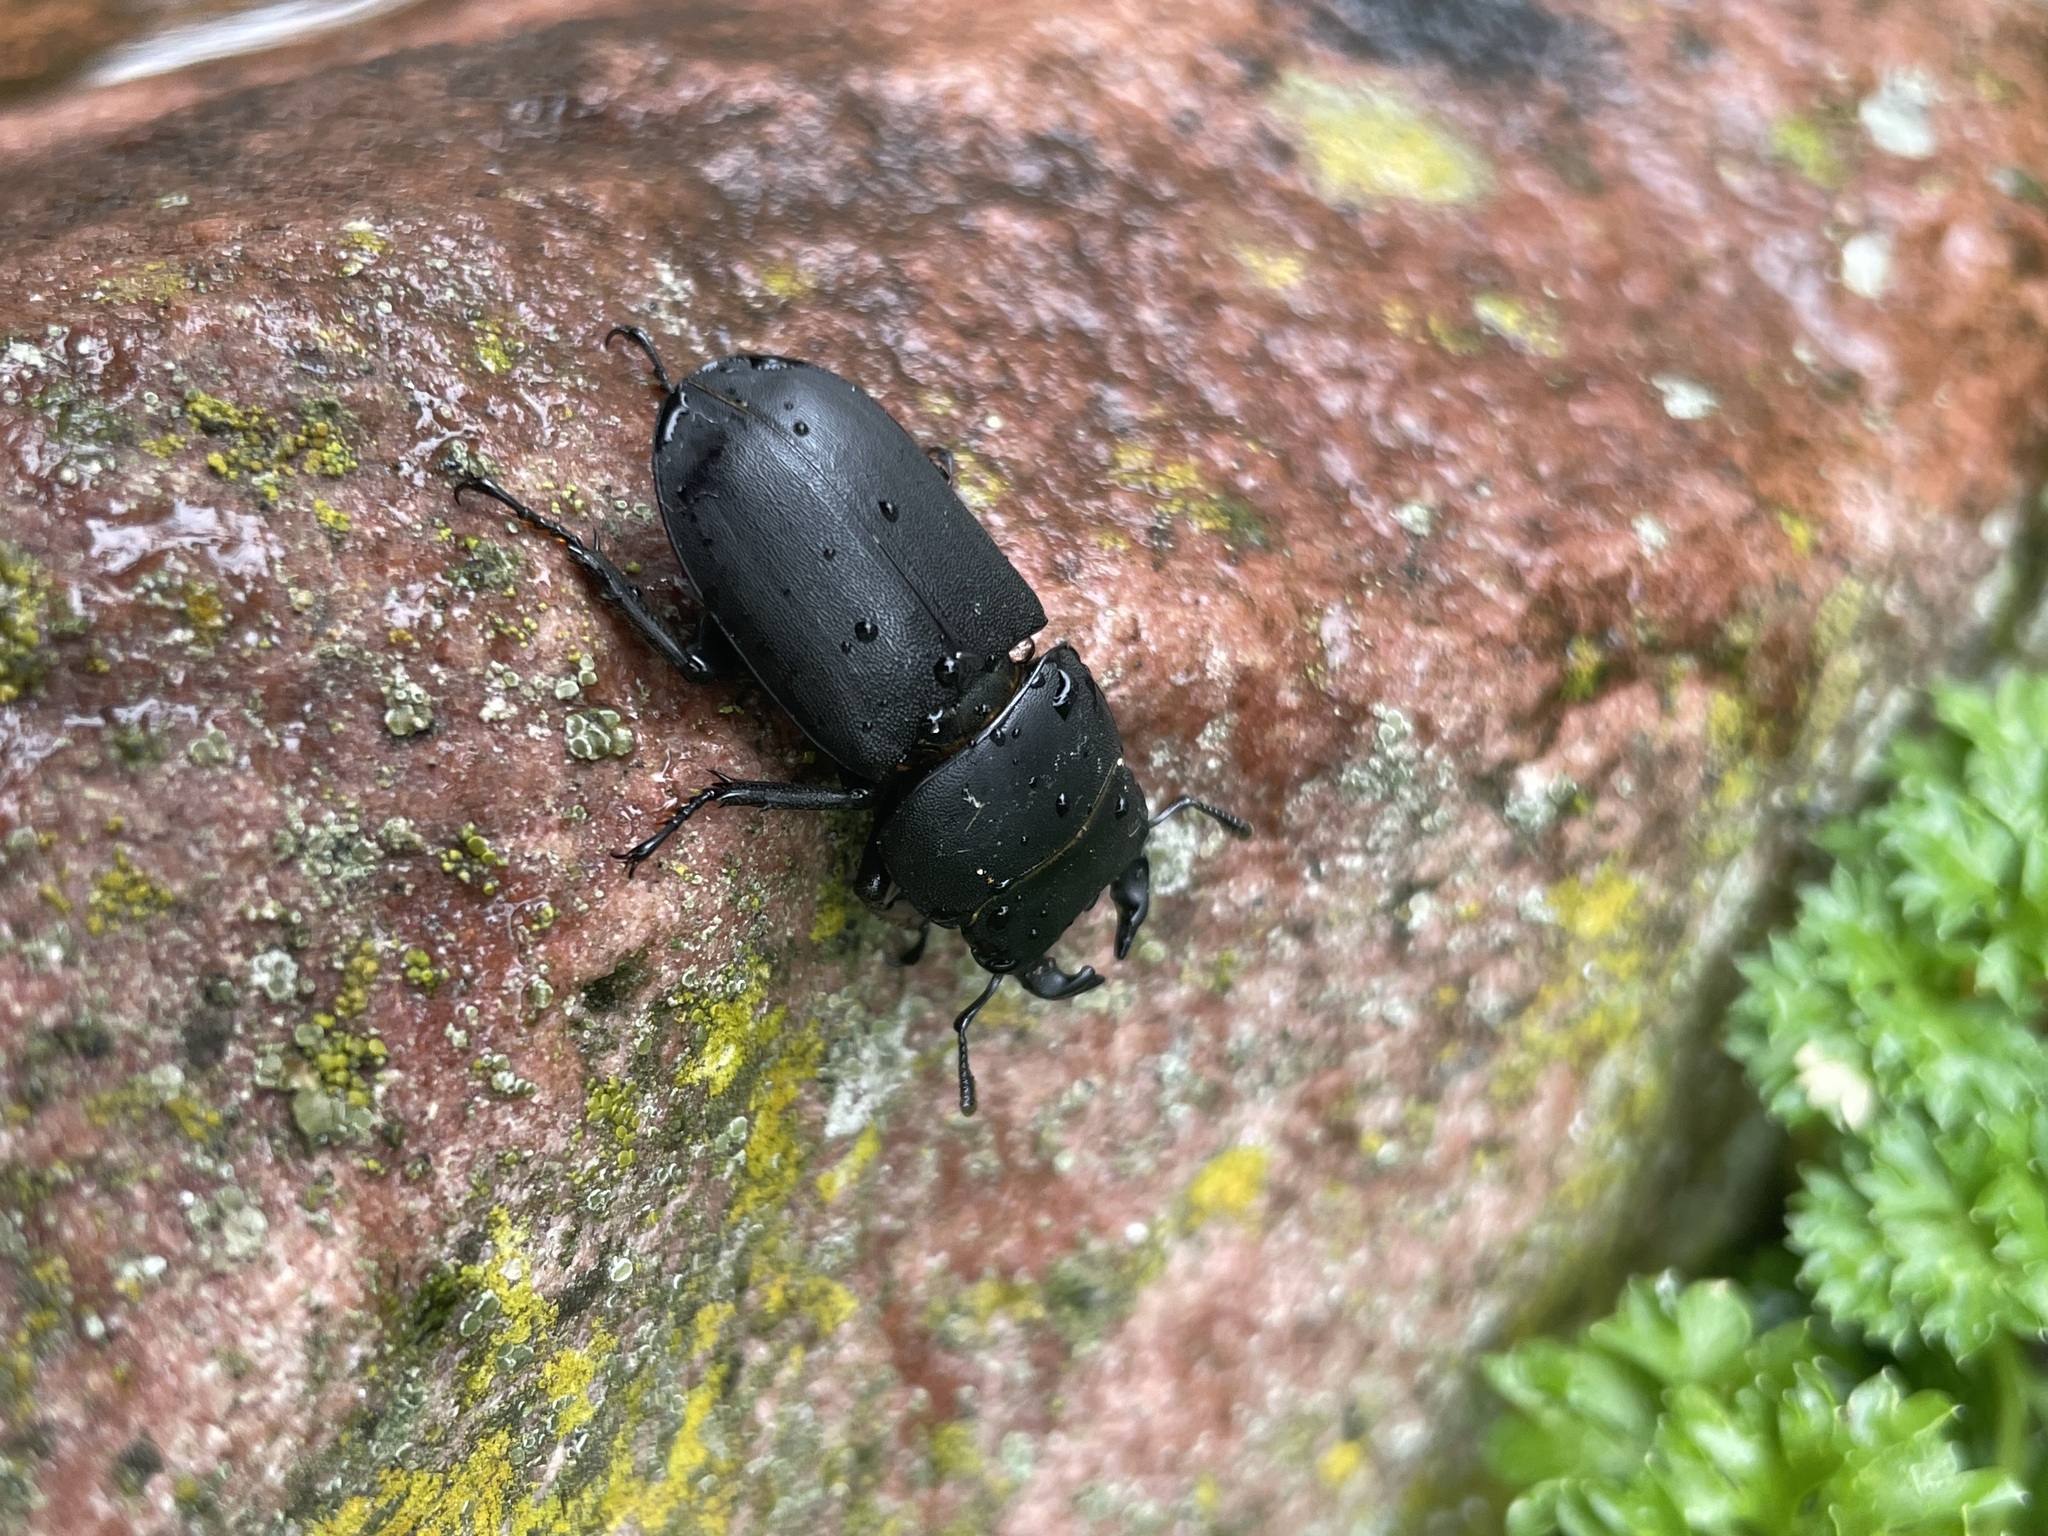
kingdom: Animalia
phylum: Arthropoda
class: Insecta
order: Coleoptera
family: Lucanidae
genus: Dorcus
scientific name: Dorcus parallelipipedus
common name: Lesser stag beetle
